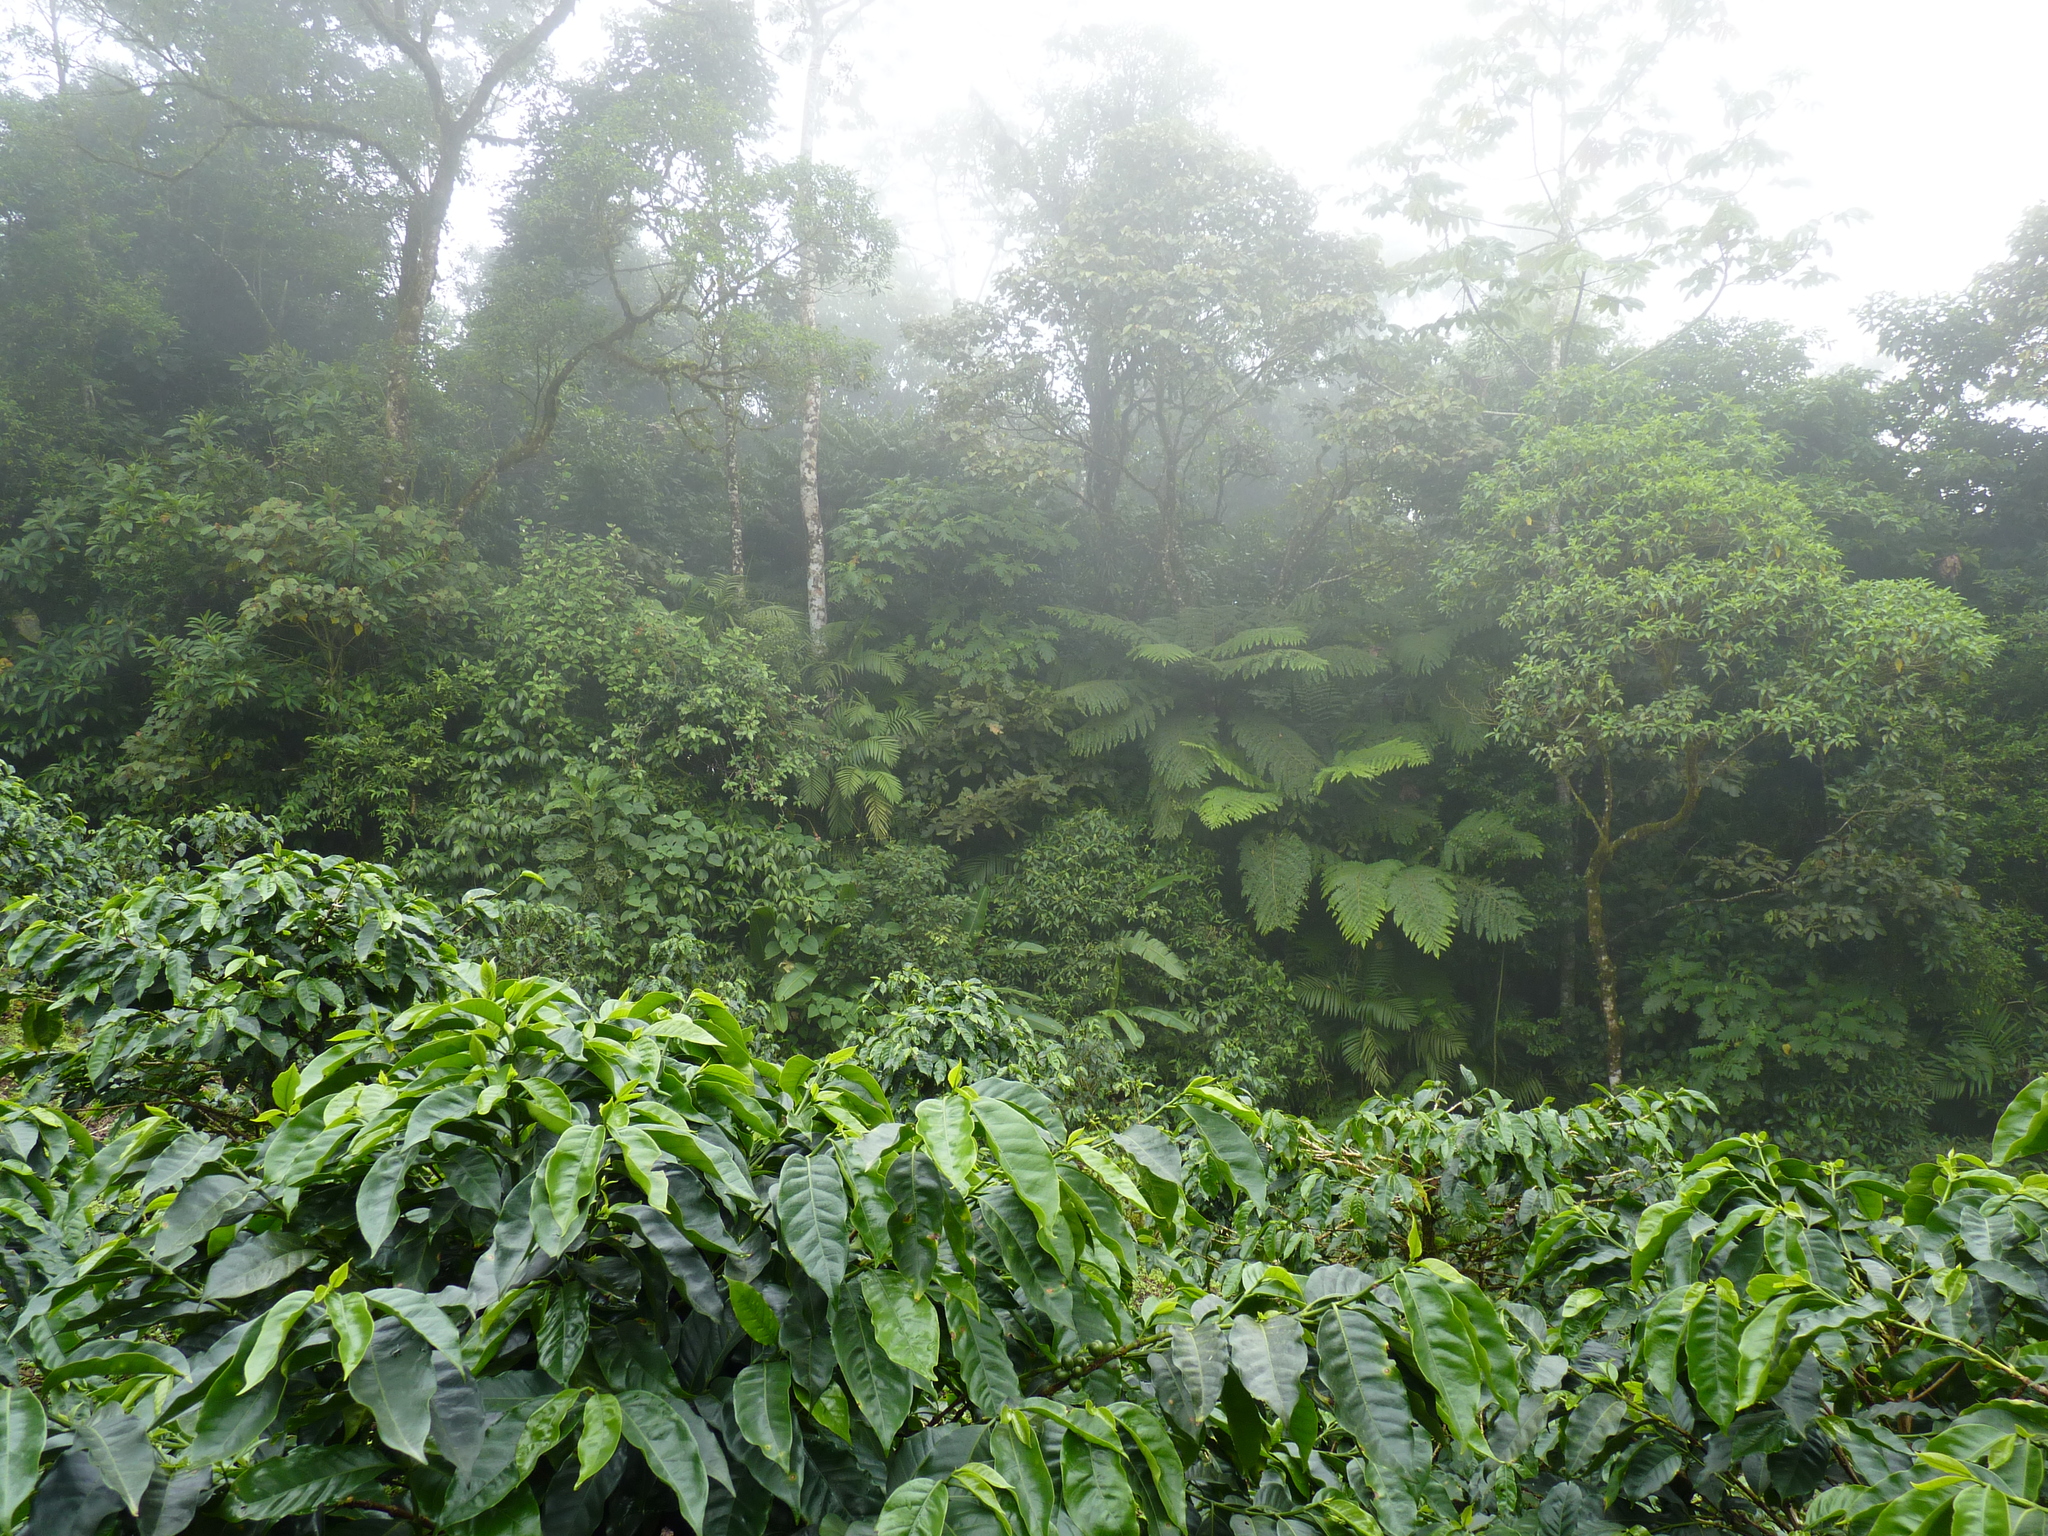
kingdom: Plantae
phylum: Tracheophyta
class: Magnoliopsida
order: Gentianales
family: Rubiaceae
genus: Coffea
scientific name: Coffea arabica
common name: Coffee
